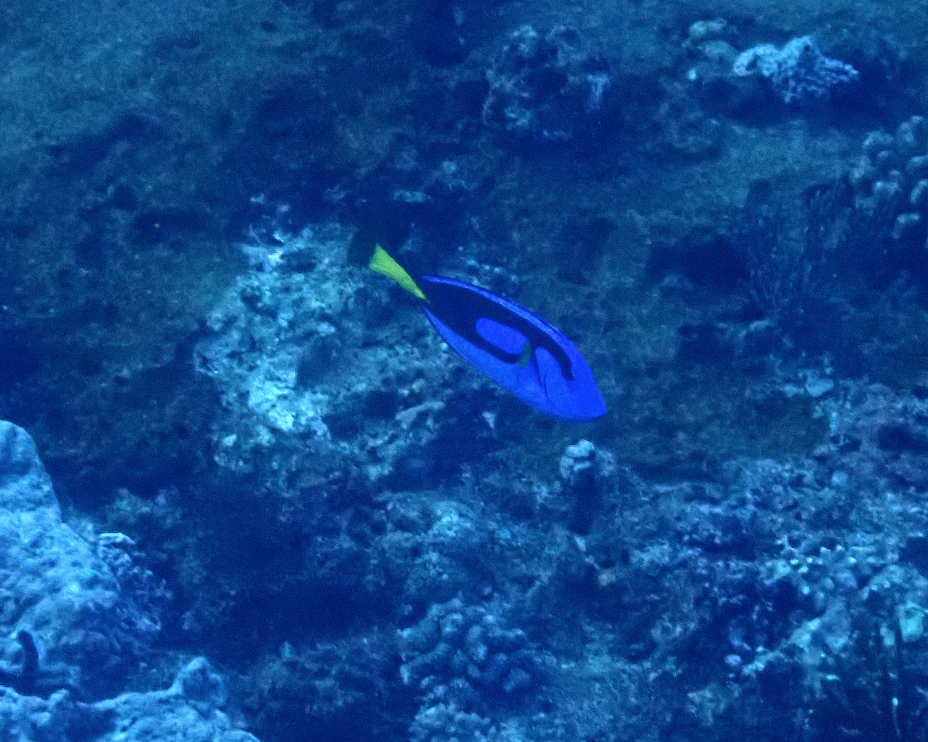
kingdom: Animalia
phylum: Chordata
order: Perciformes
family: Acanthuridae
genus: Paracanthurus
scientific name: Paracanthurus hepatus
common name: Palette surgeonfish
